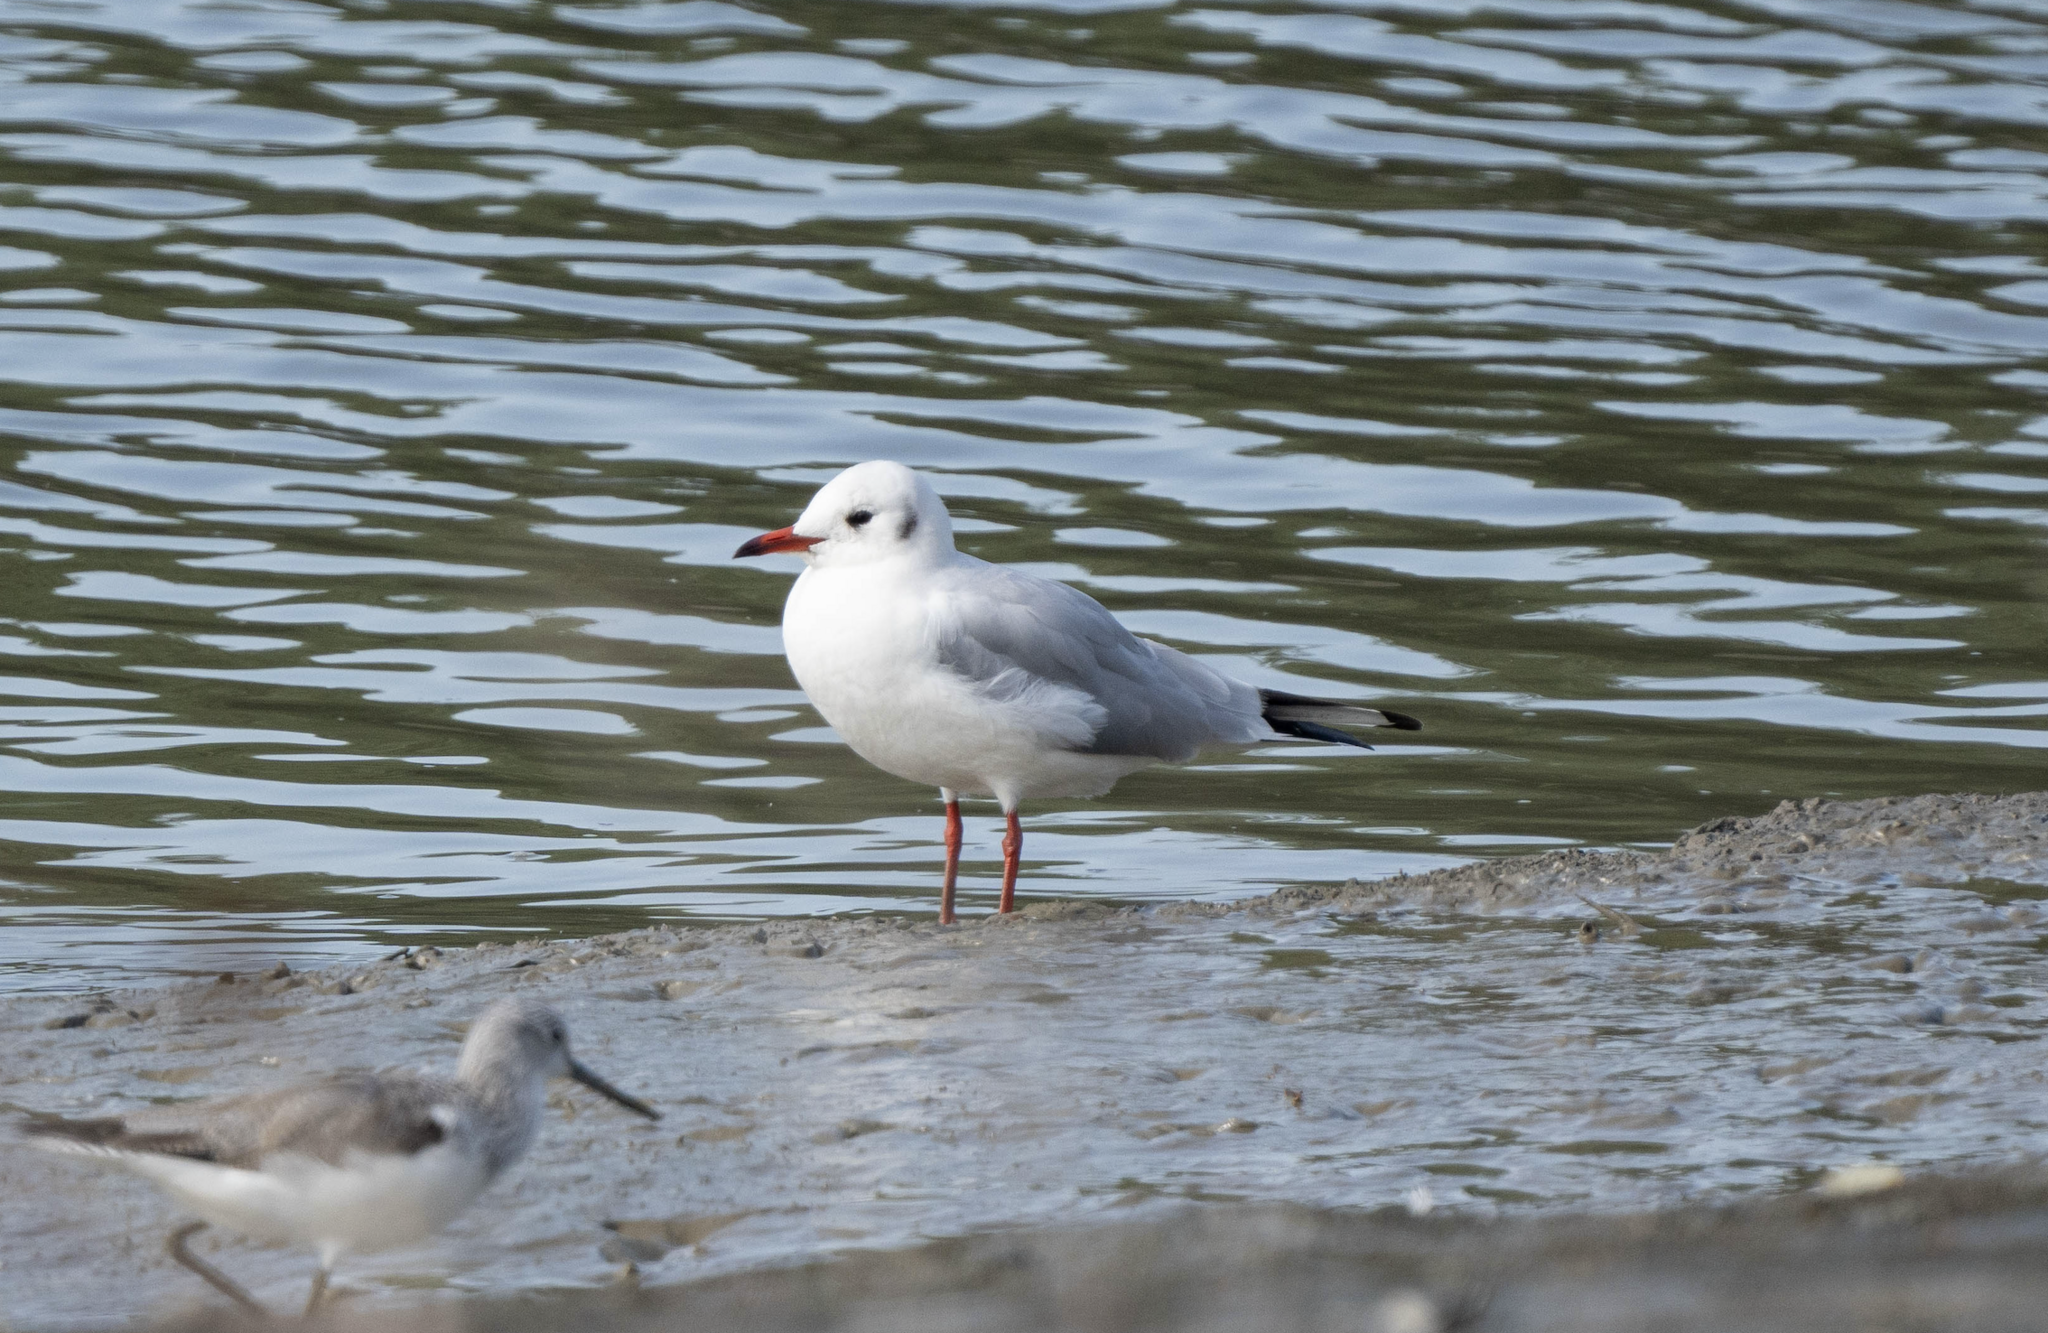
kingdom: Animalia
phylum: Chordata
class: Aves
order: Charadriiformes
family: Laridae
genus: Chroicocephalus
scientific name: Chroicocephalus ridibundus
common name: Black-headed gull
